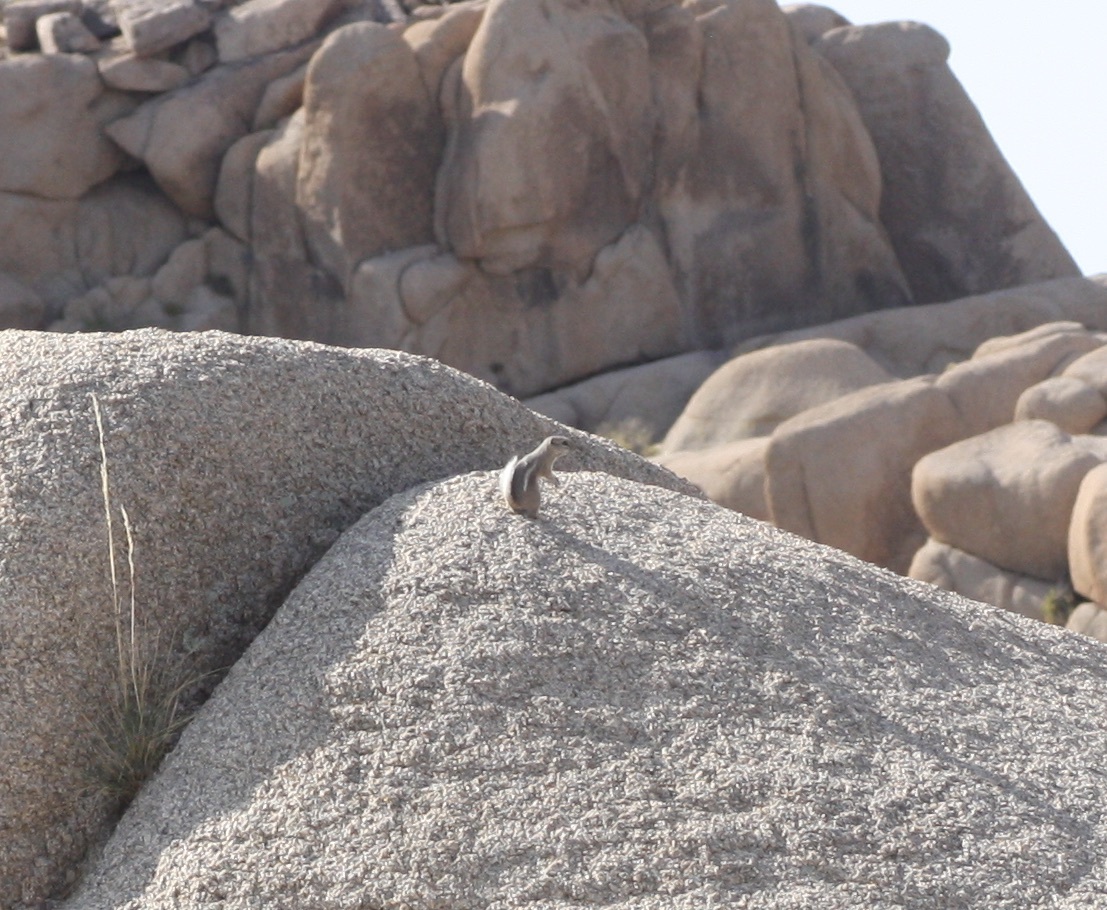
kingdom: Animalia
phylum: Chordata
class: Mammalia
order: Rodentia
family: Sciuridae
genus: Ammospermophilus
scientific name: Ammospermophilus leucurus
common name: White-tailed antelope squirrel
